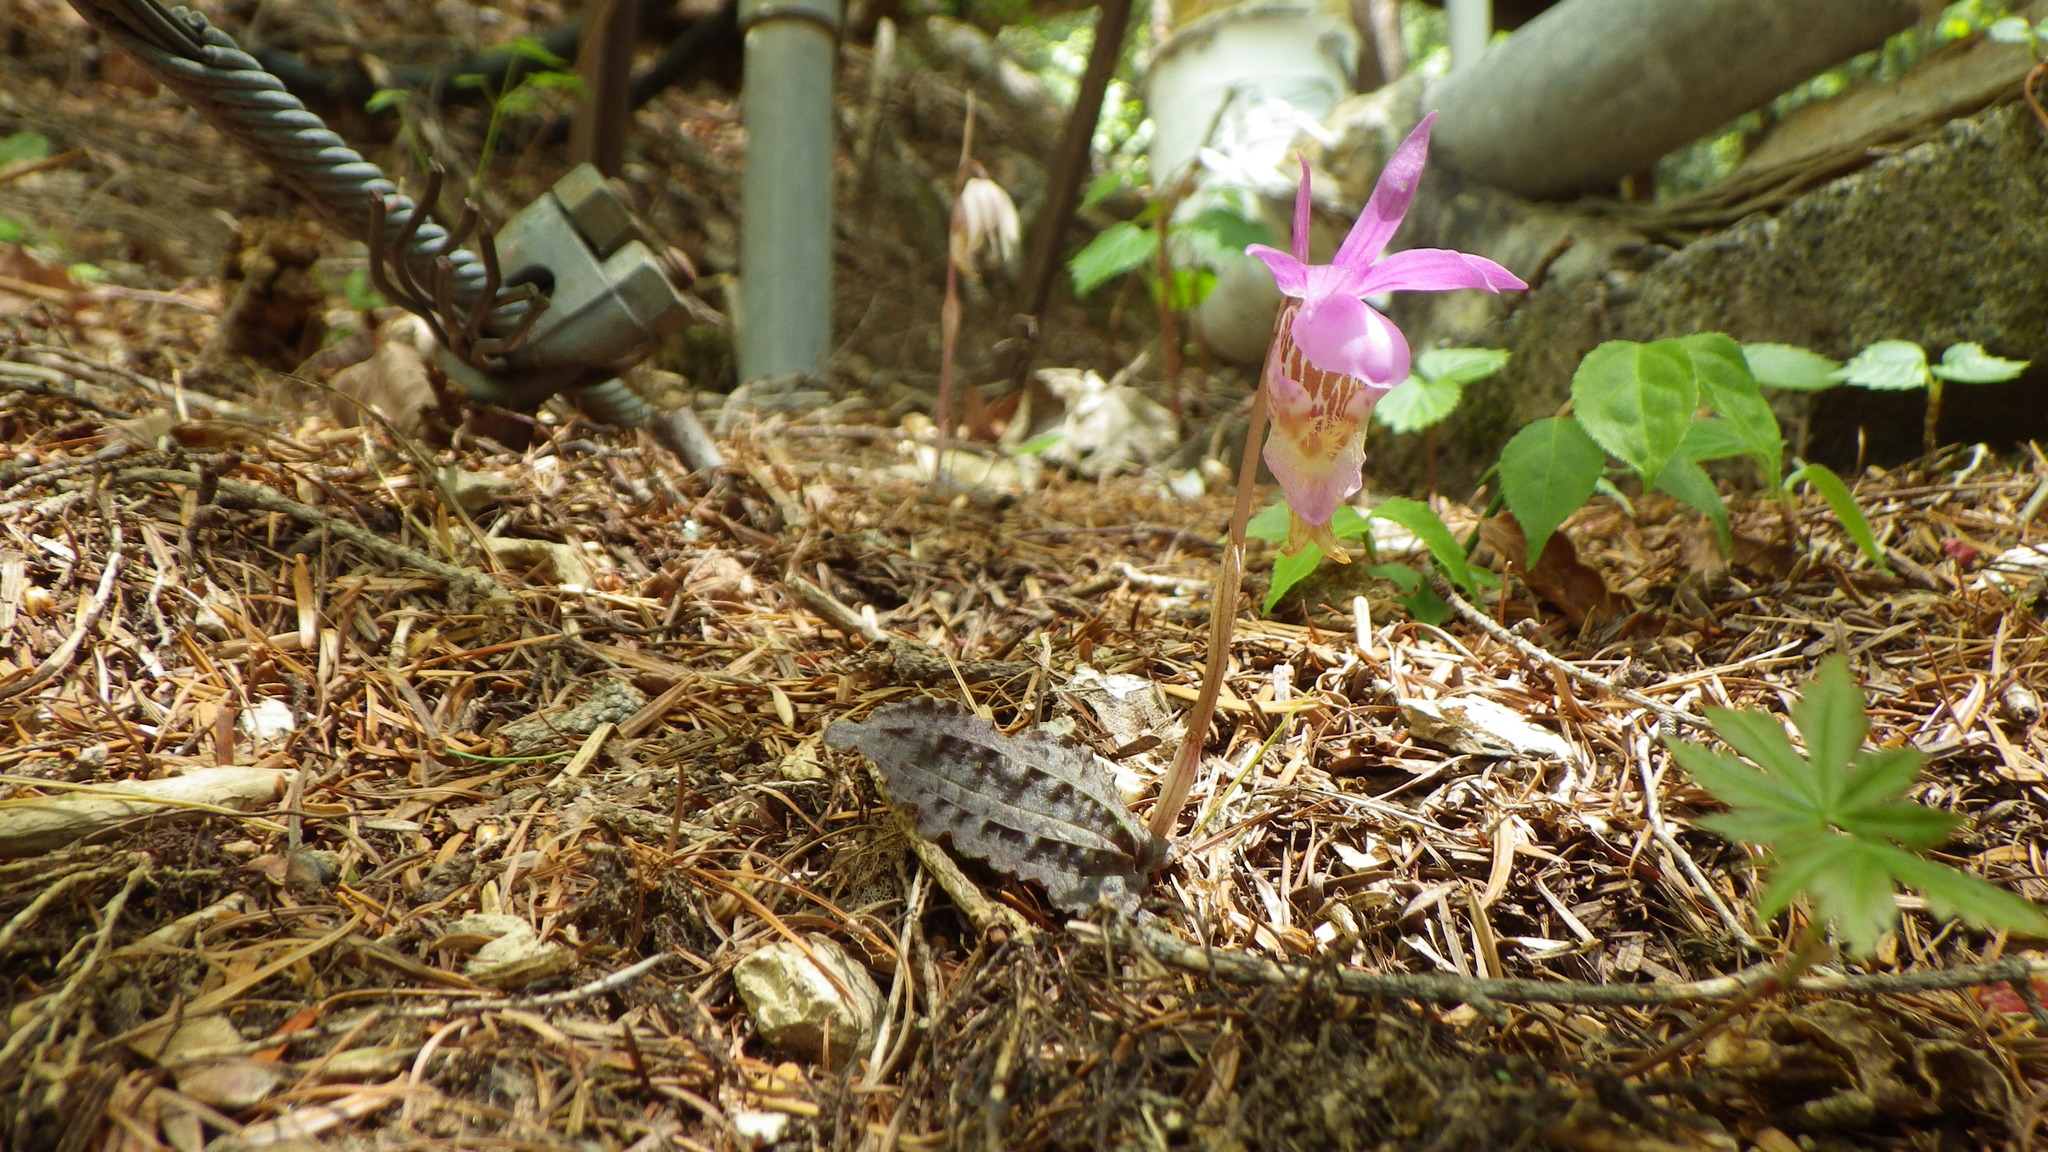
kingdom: Plantae
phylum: Tracheophyta
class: Liliopsida
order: Asparagales
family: Orchidaceae
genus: Calypso
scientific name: Calypso bulbosa
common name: Calypso
